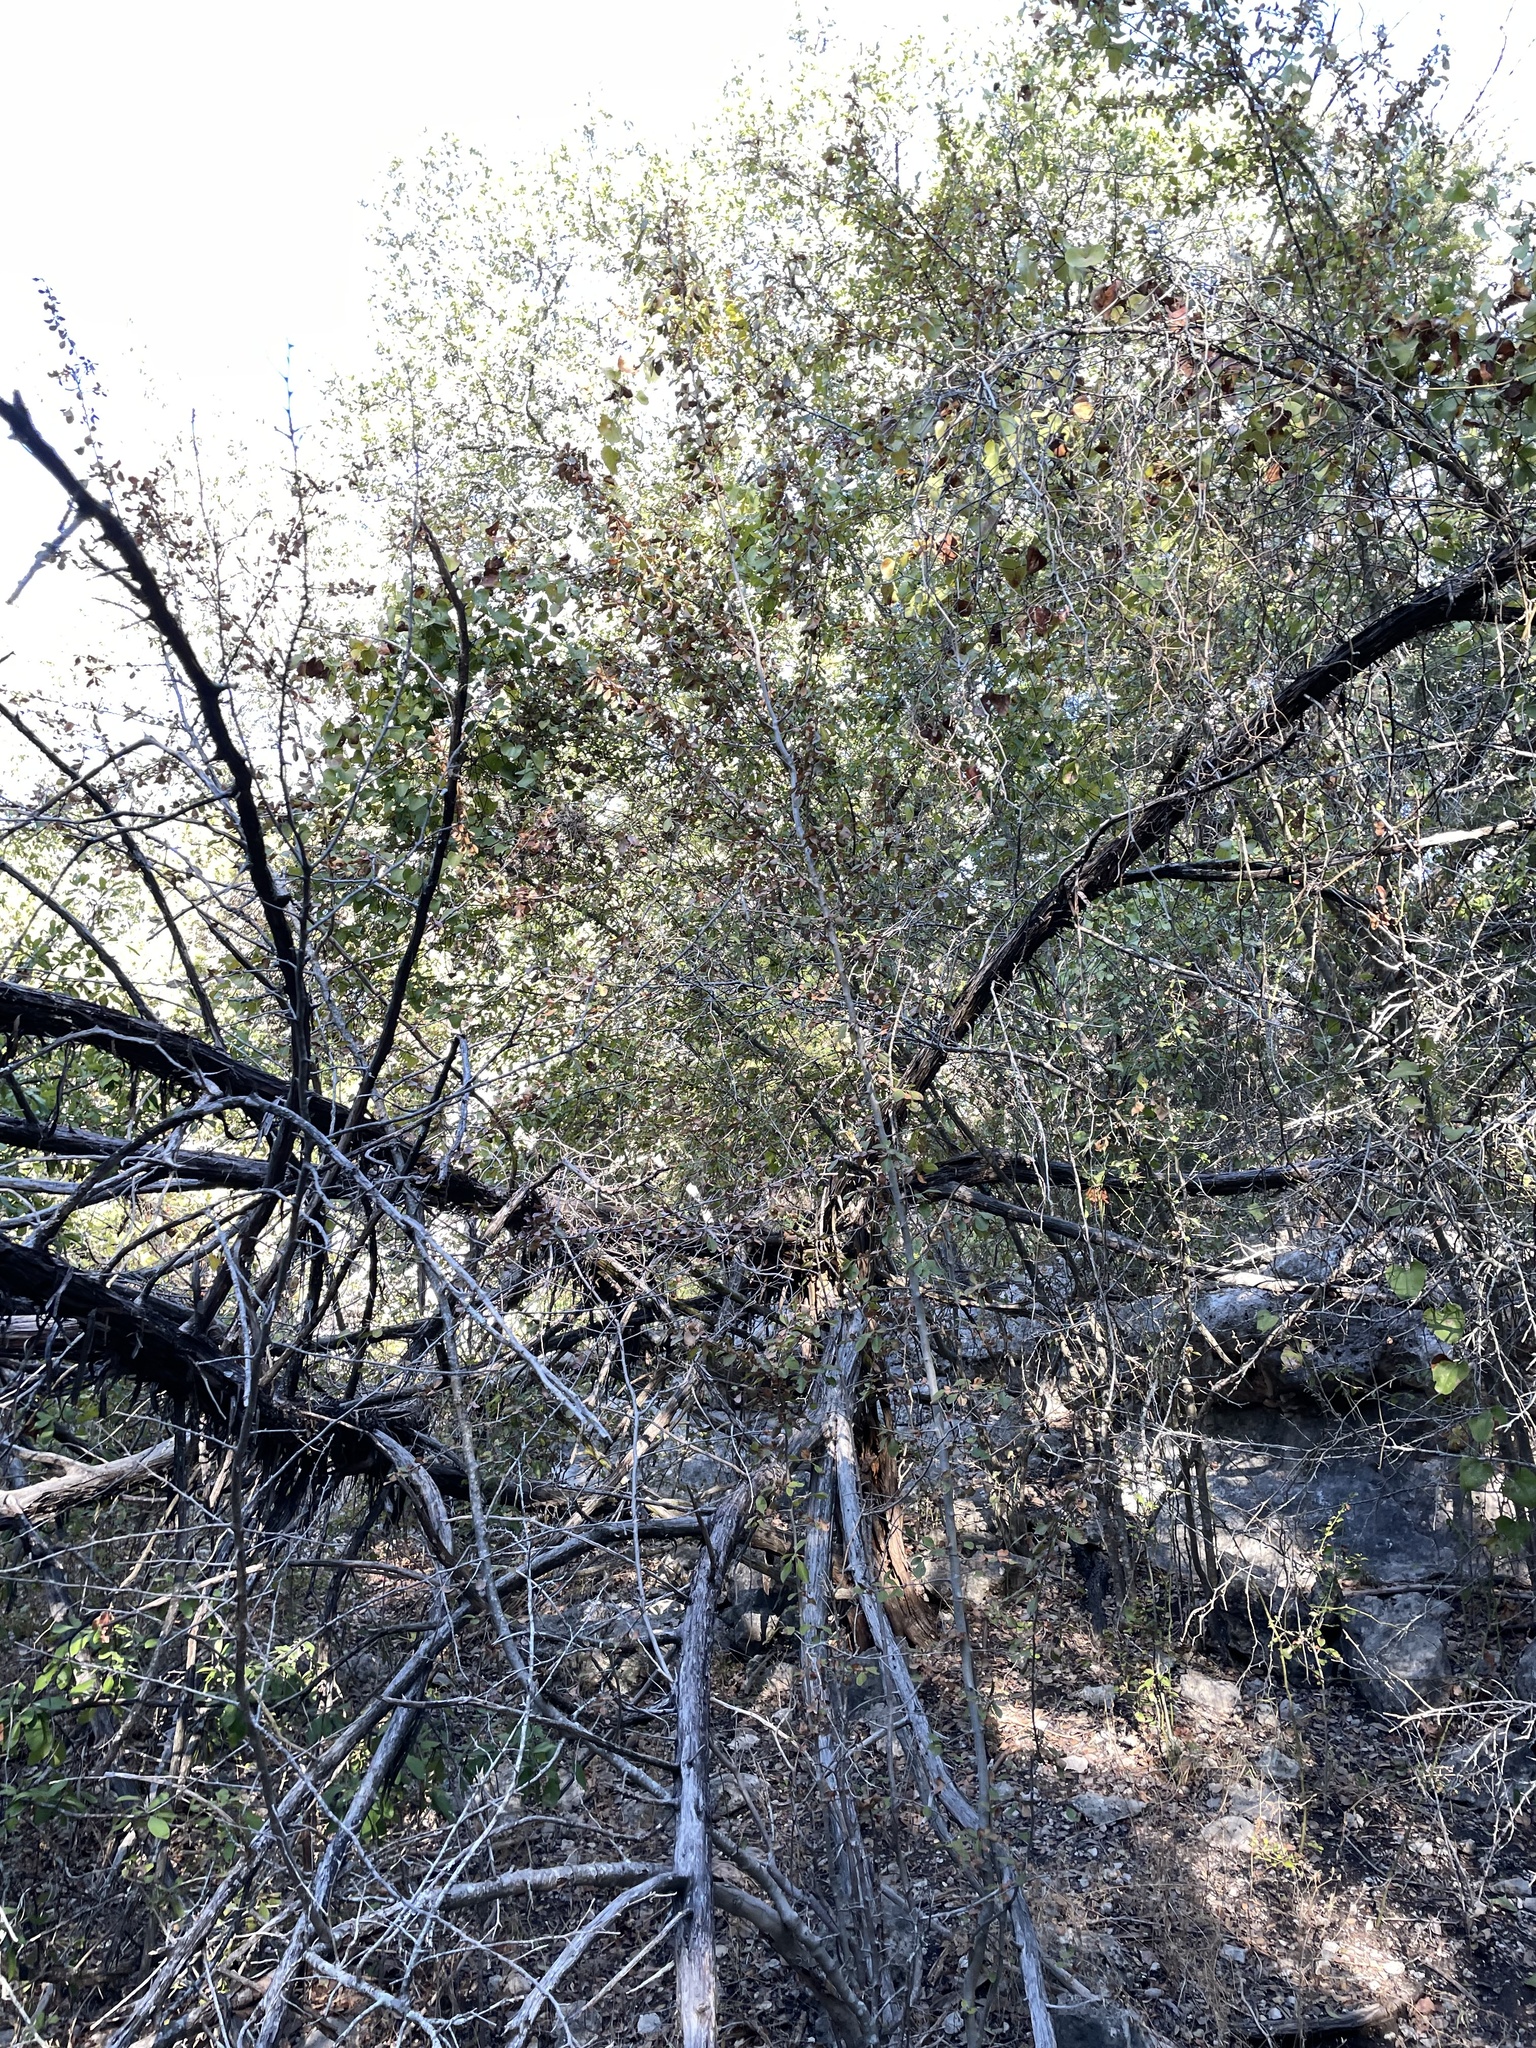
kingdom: Plantae
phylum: Tracheophyta
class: Magnoliopsida
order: Aquifoliales
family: Aquifoliaceae
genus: Ilex
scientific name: Ilex decidua
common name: Possum-haw
